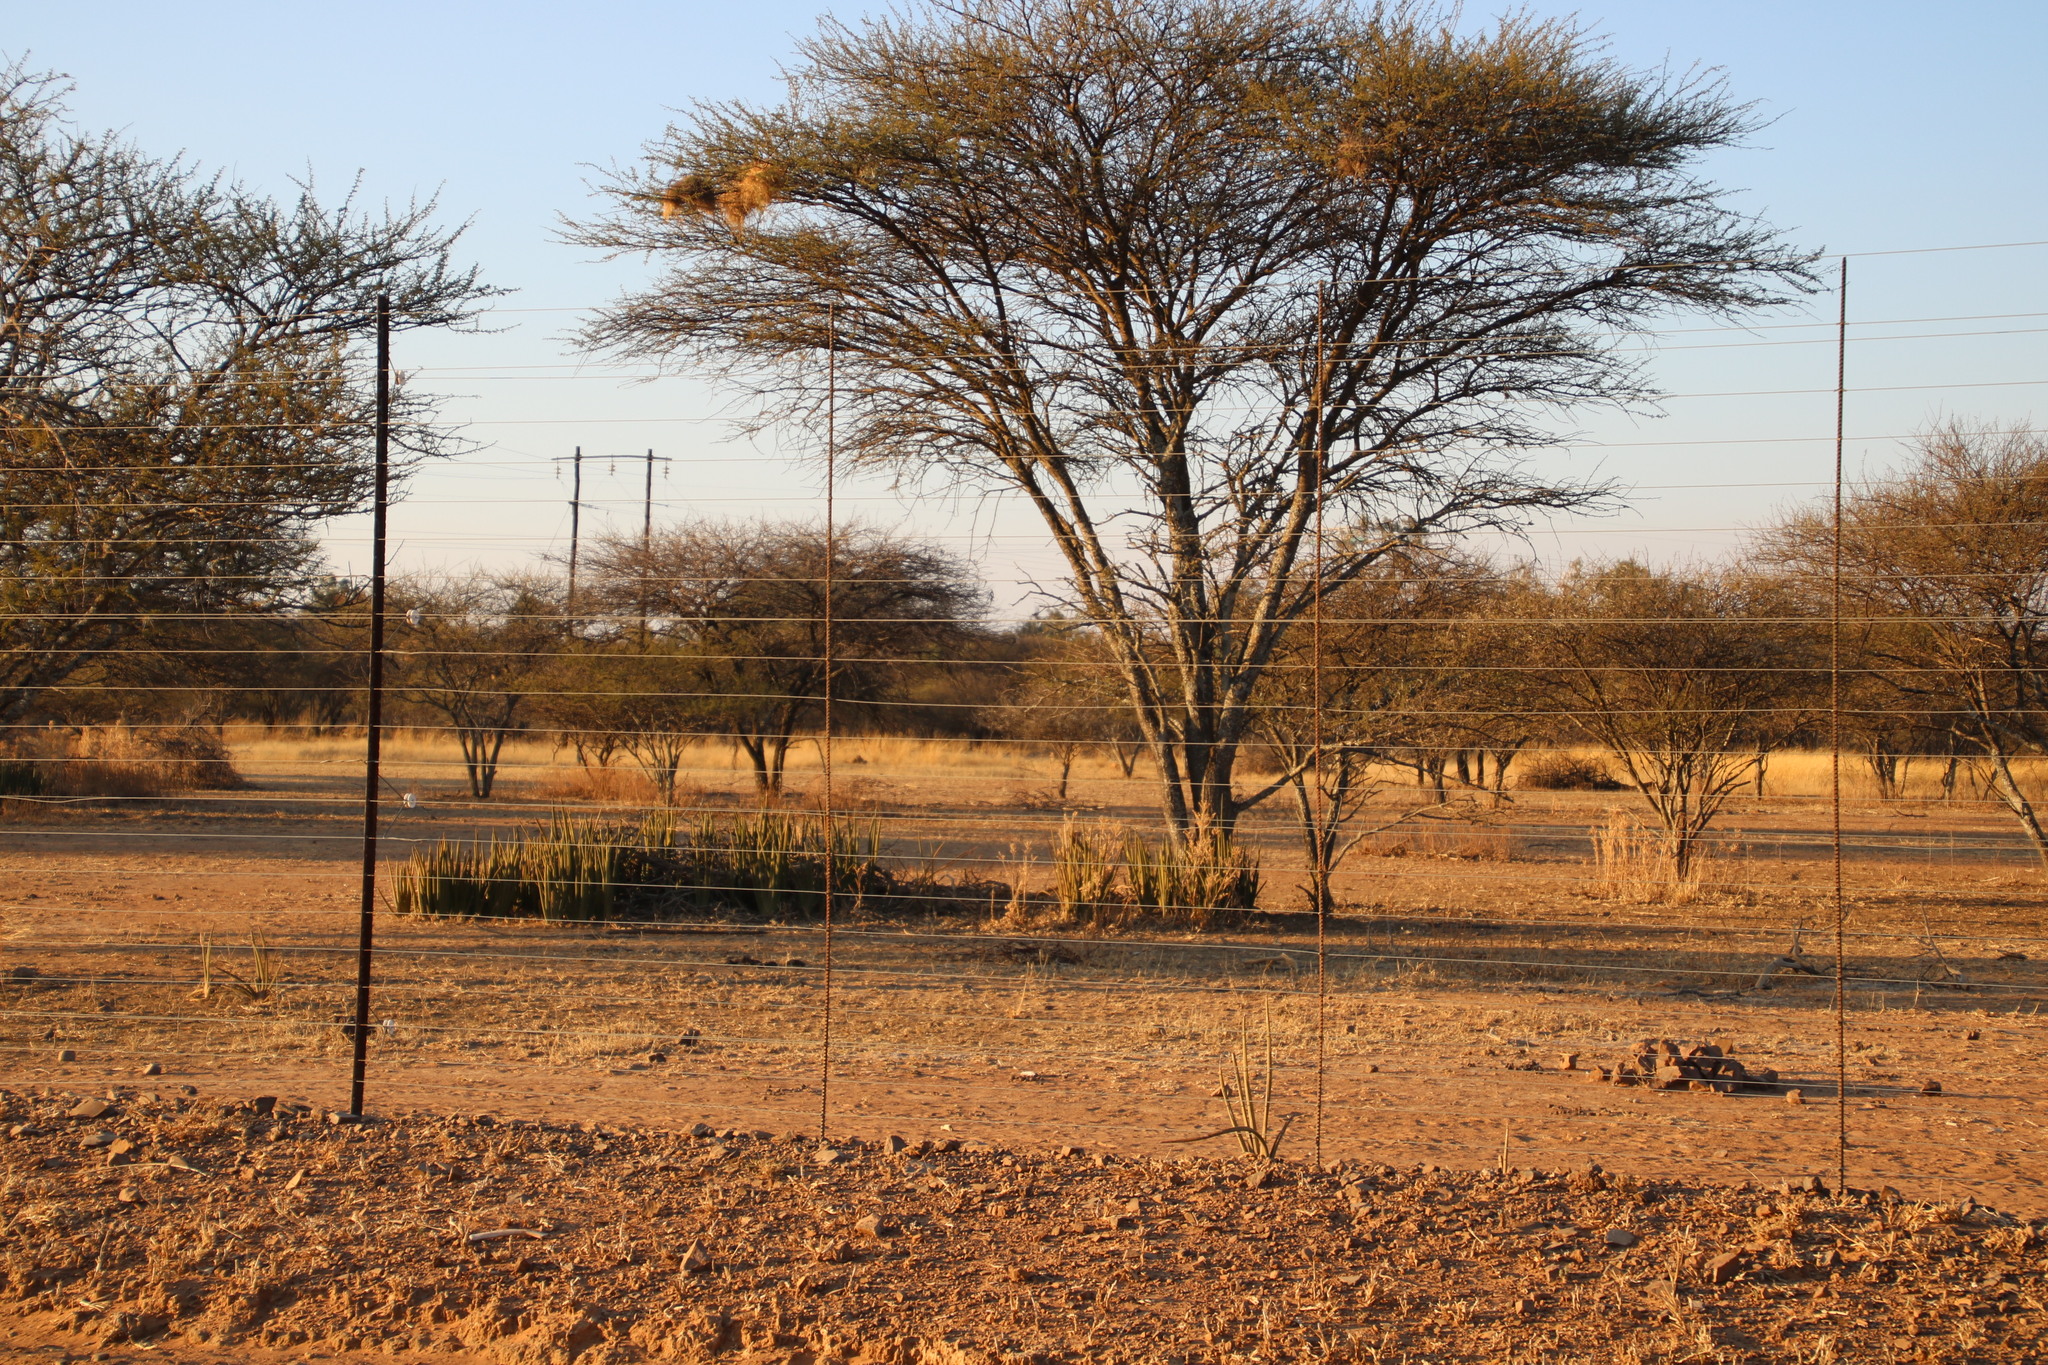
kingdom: Plantae
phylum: Tracheophyta
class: Liliopsida
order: Asparagales
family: Asparagaceae
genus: Dracaena
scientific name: Dracaena pearsonii
